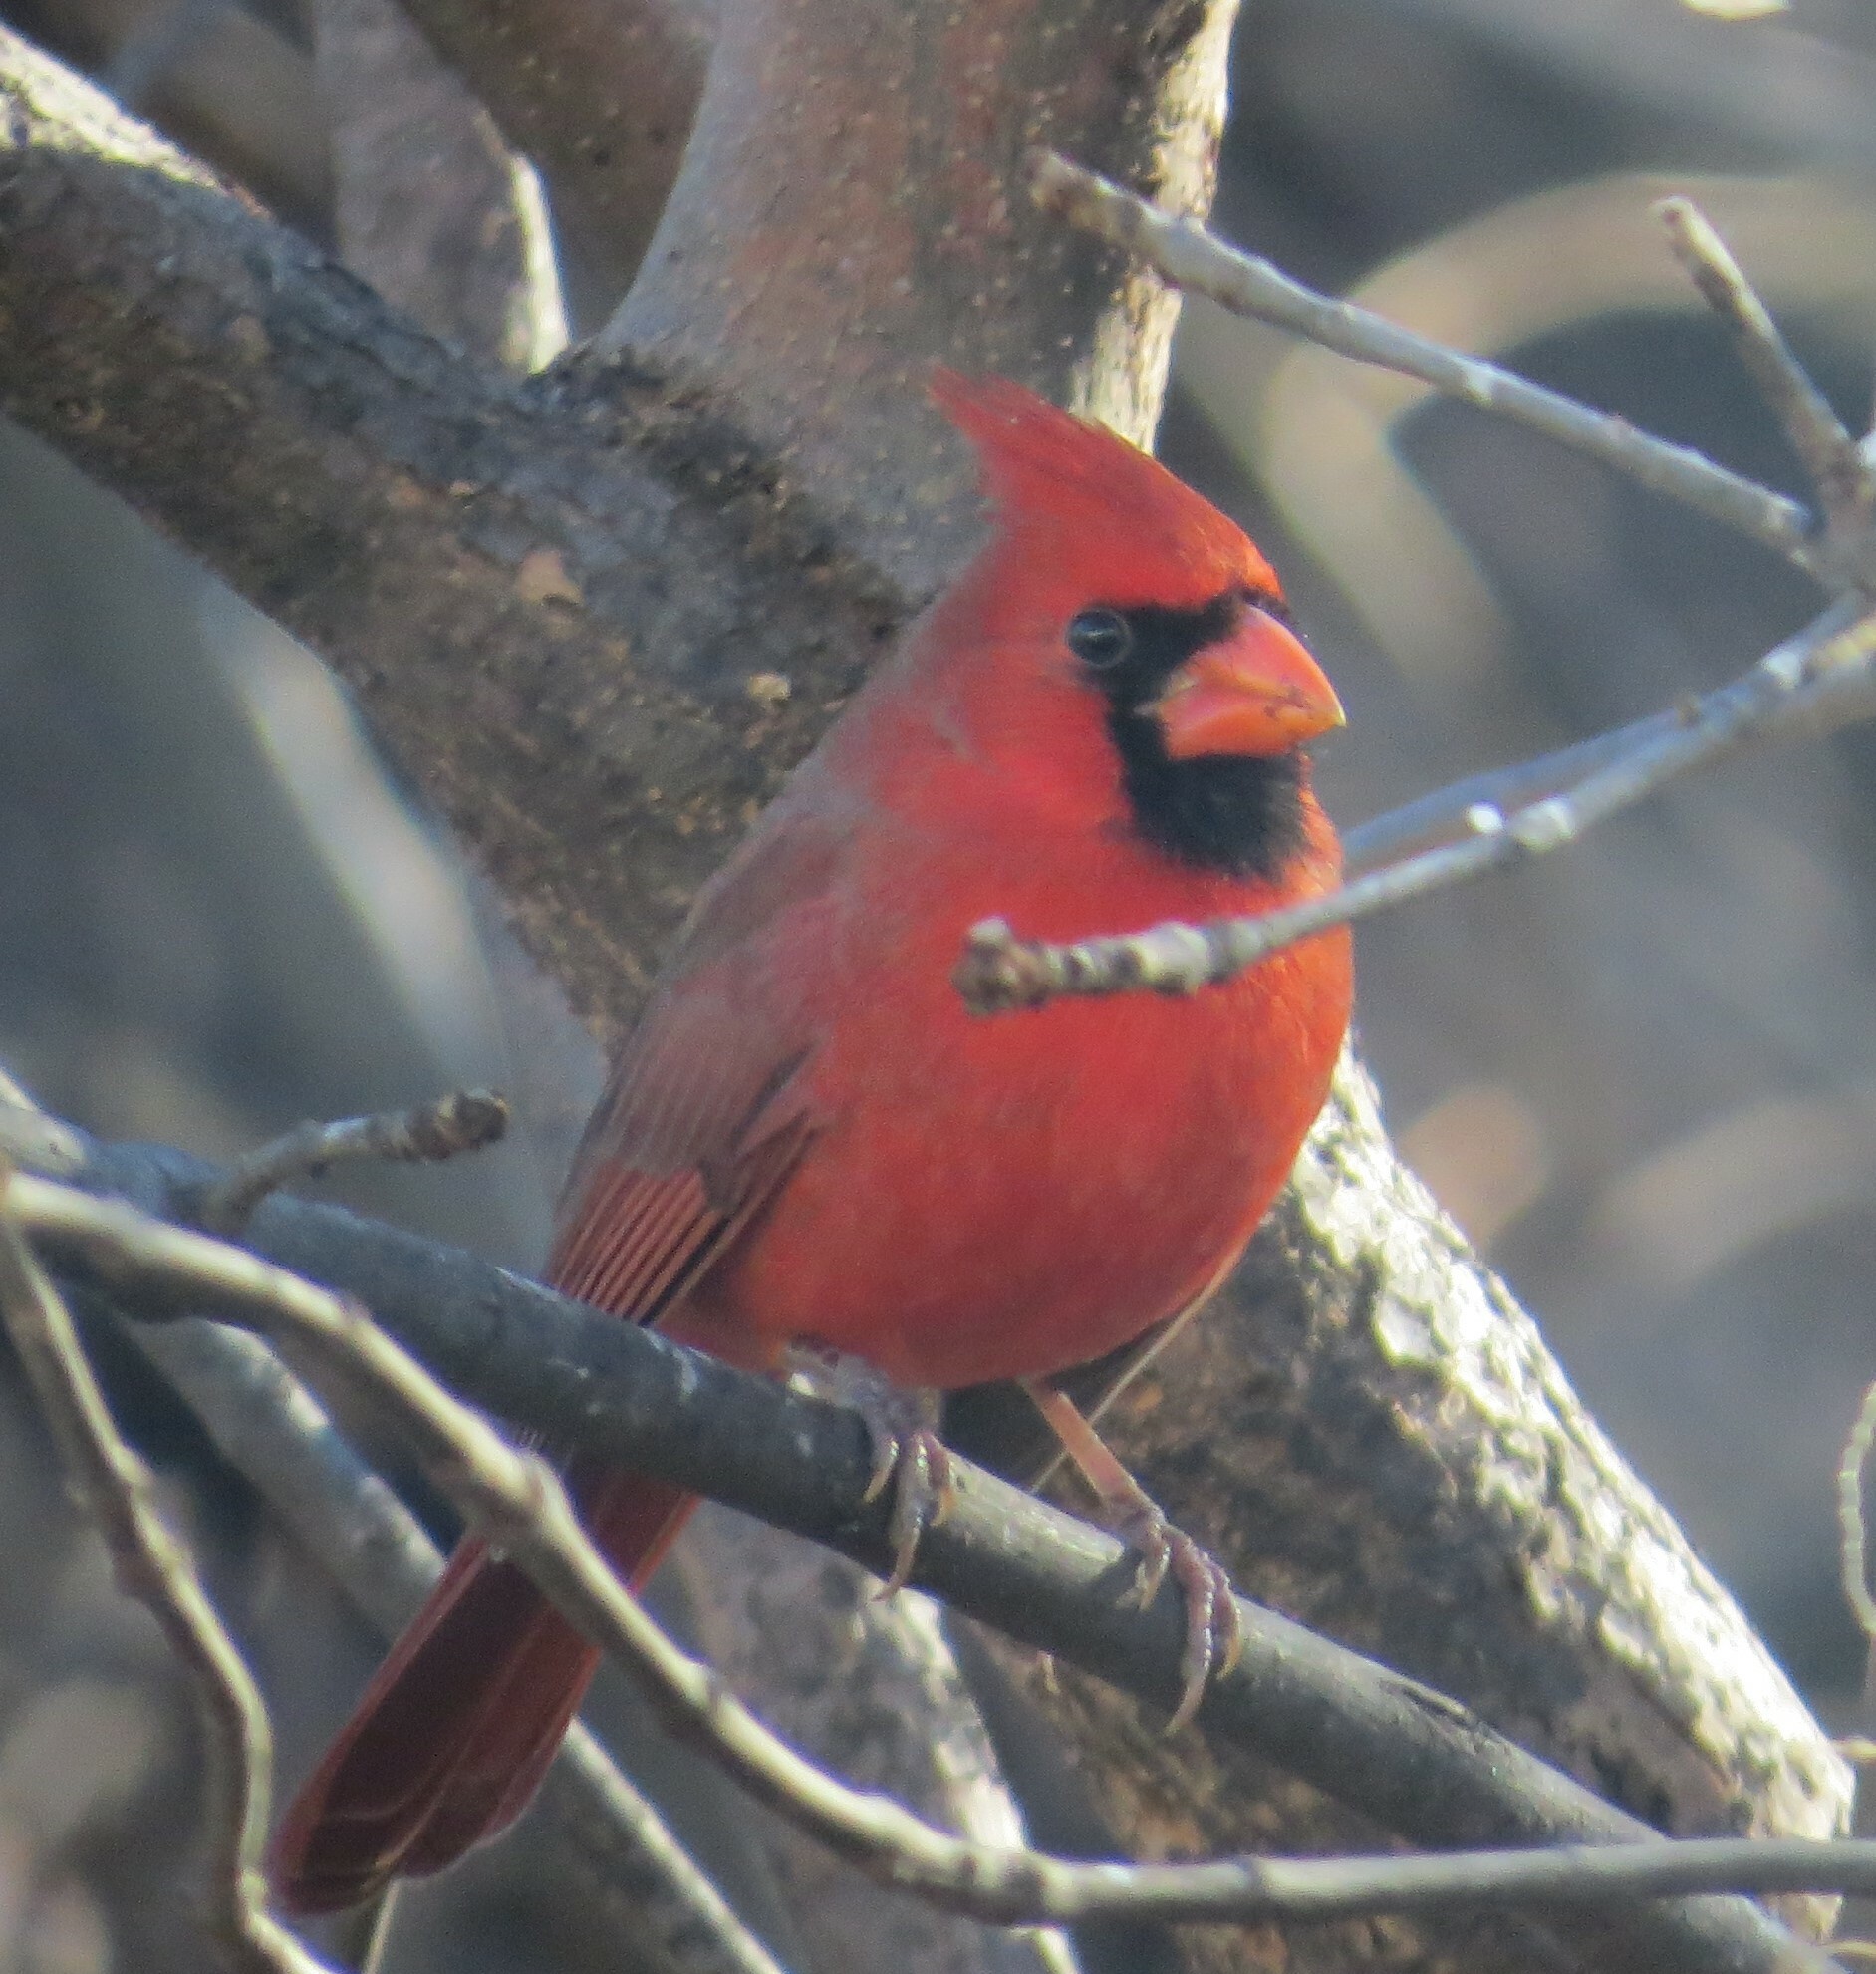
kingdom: Animalia
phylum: Chordata
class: Aves
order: Passeriformes
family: Cardinalidae
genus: Cardinalis
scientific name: Cardinalis cardinalis
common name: Northern cardinal
